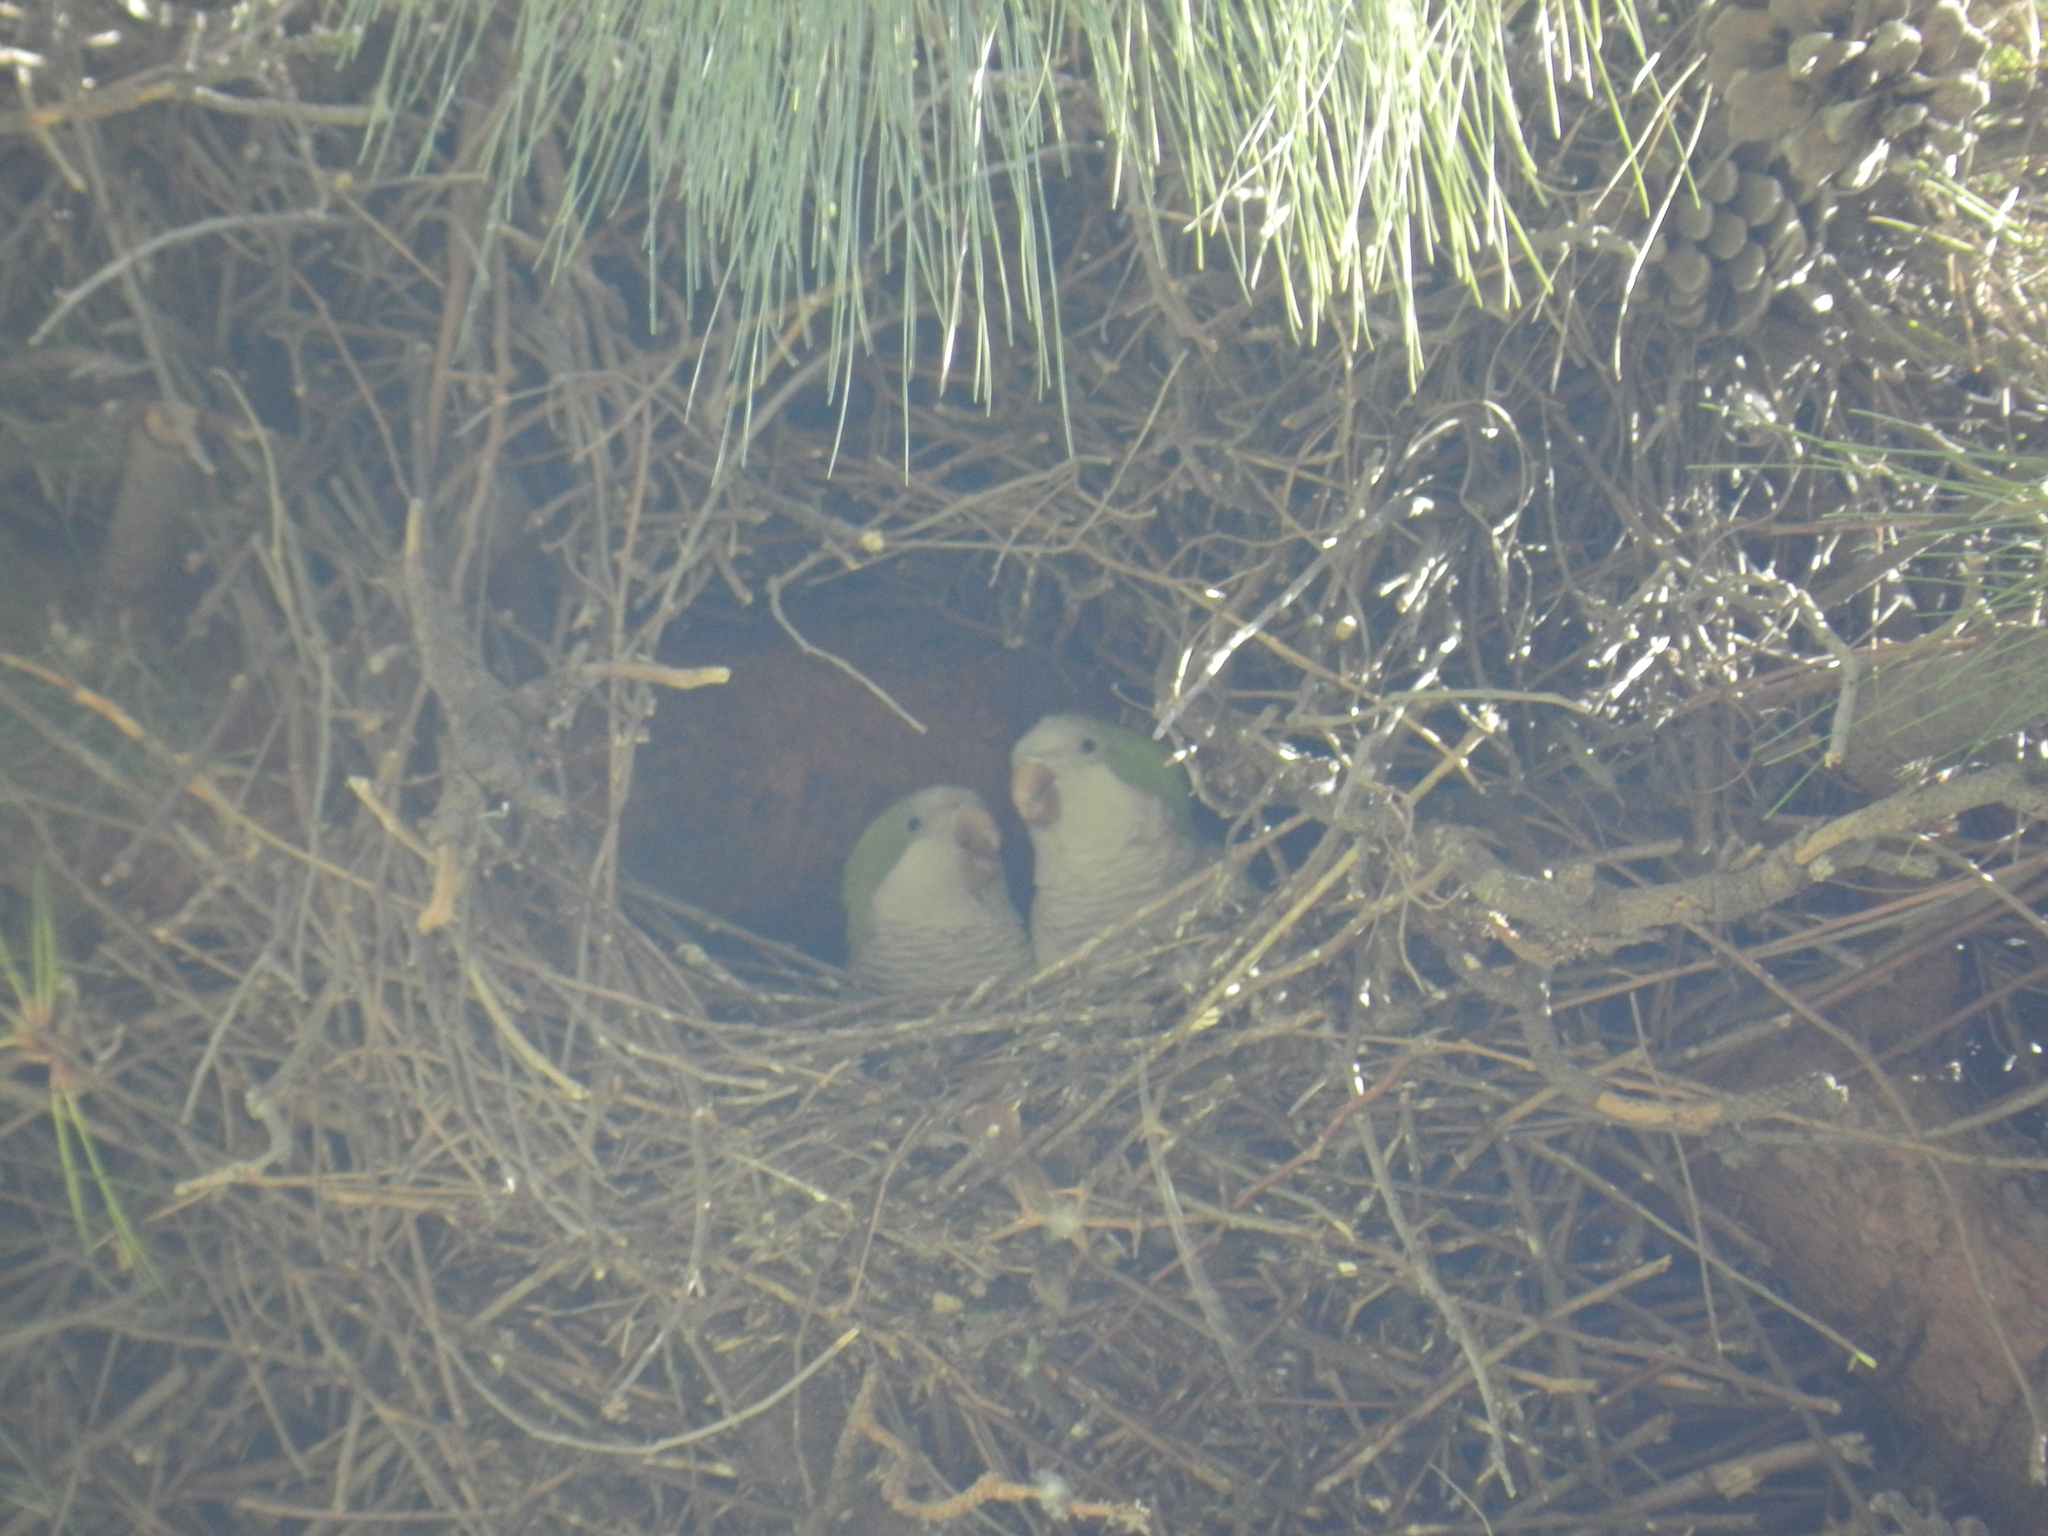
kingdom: Animalia
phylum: Chordata
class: Aves
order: Psittaciformes
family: Psittacidae
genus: Myiopsitta
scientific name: Myiopsitta monachus
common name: Monk parakeet
